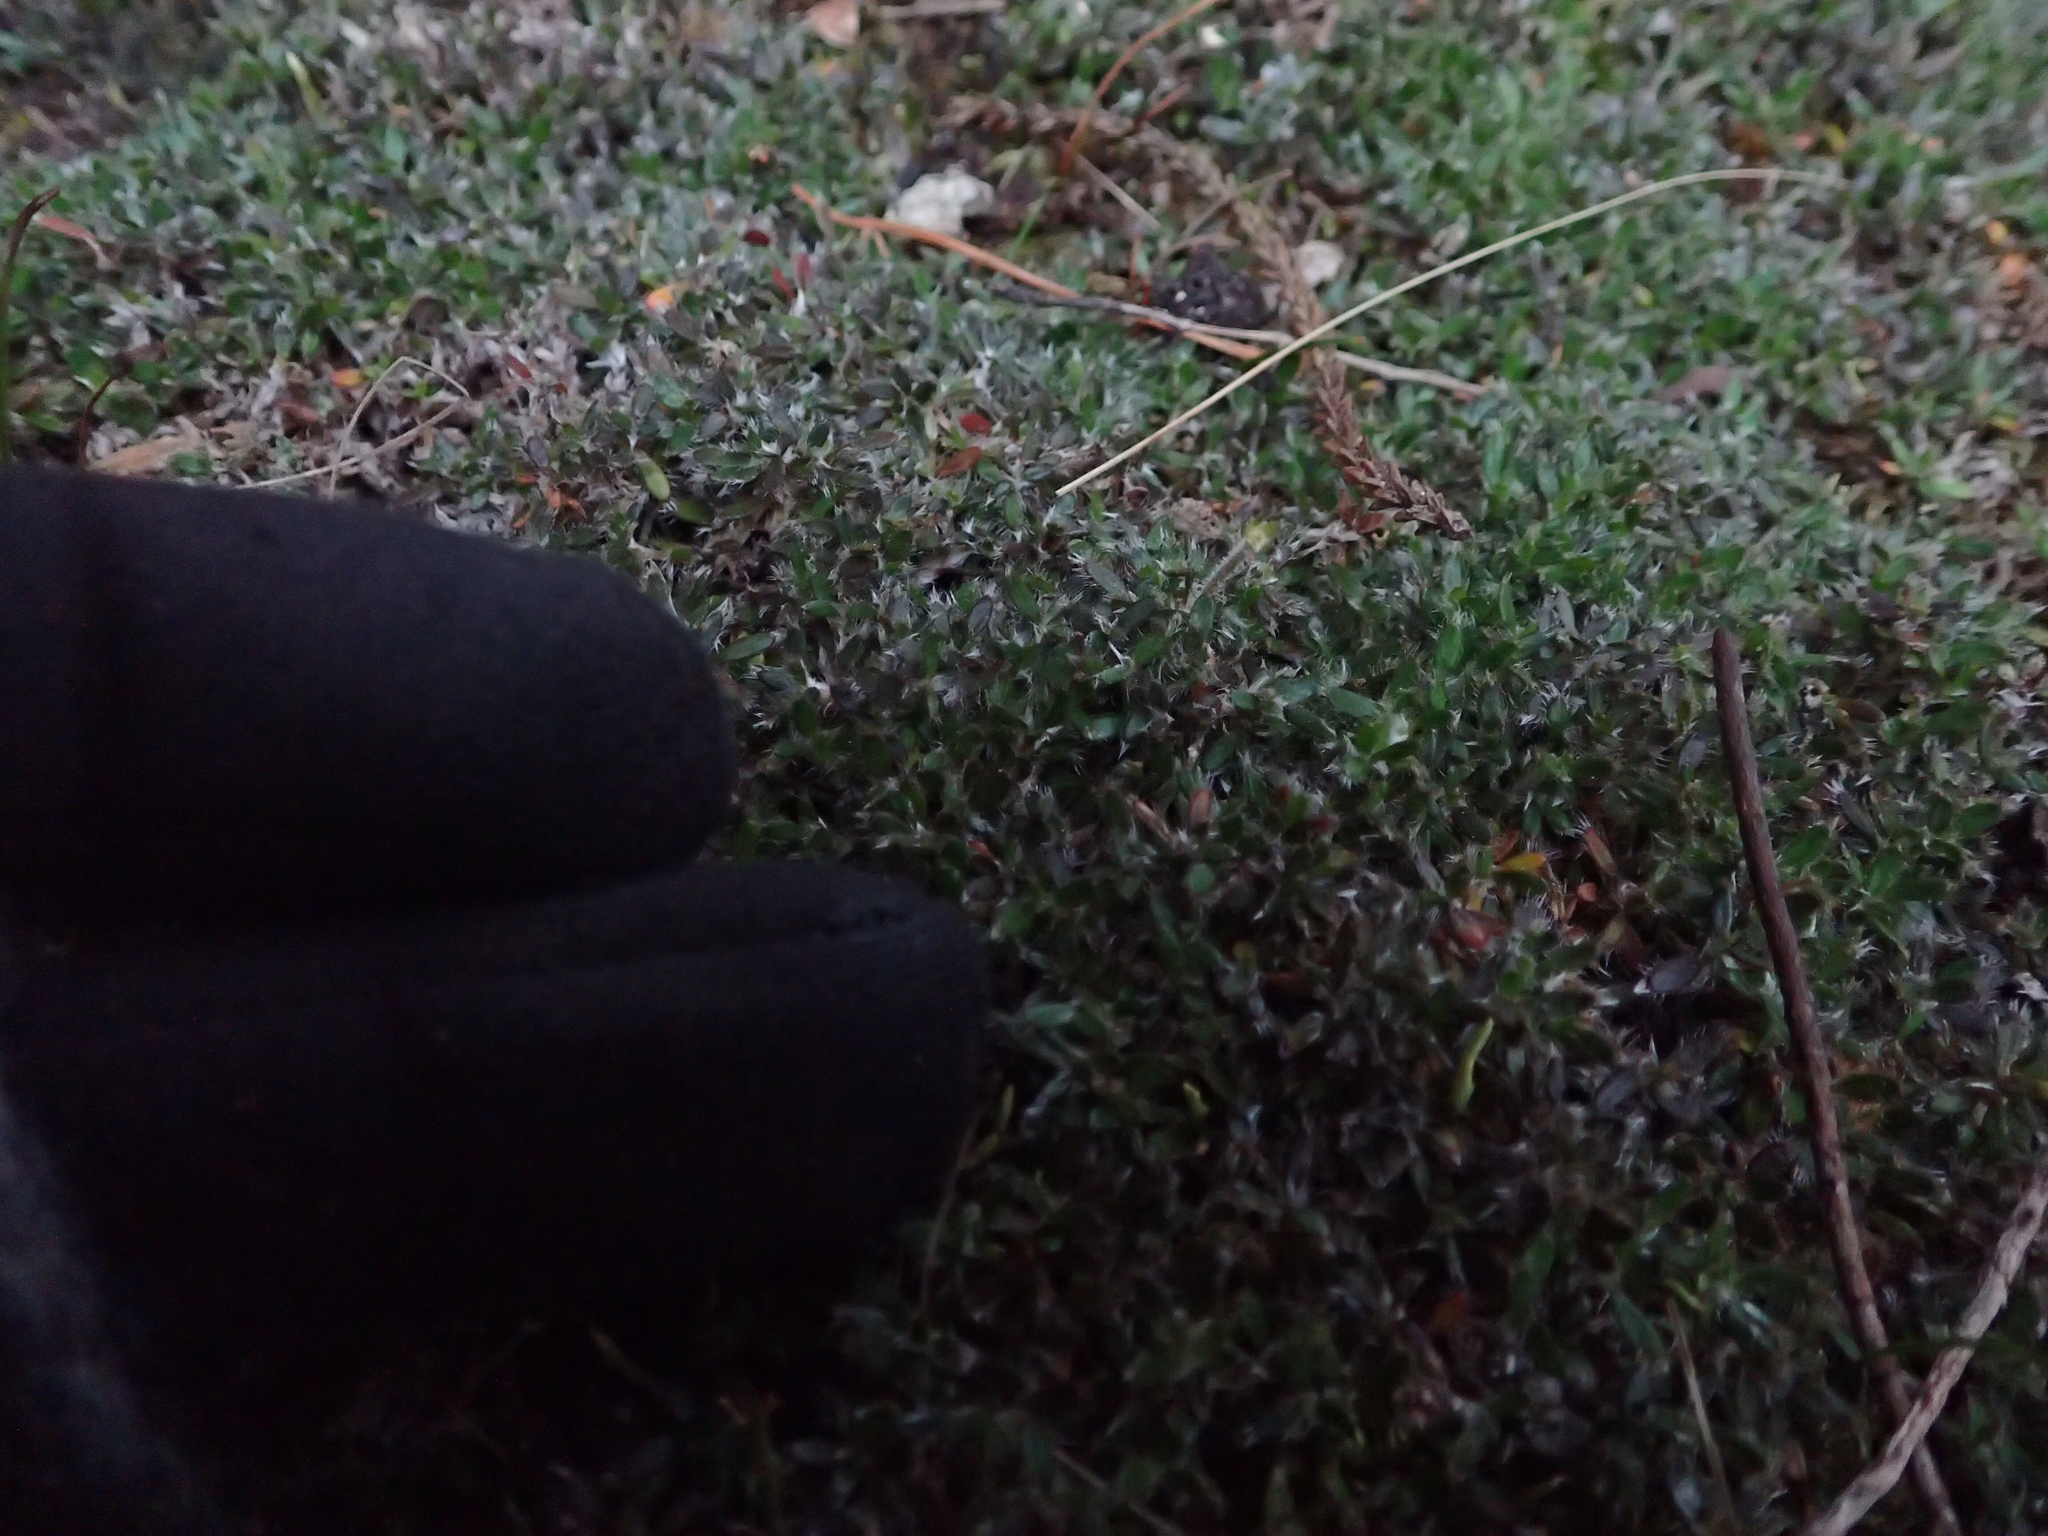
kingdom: Plantae
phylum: Tracheophyta
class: Magnoliopsida
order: Apiales
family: Apiaceae
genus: Actinotus
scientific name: Actinotus novae-zealandiae
